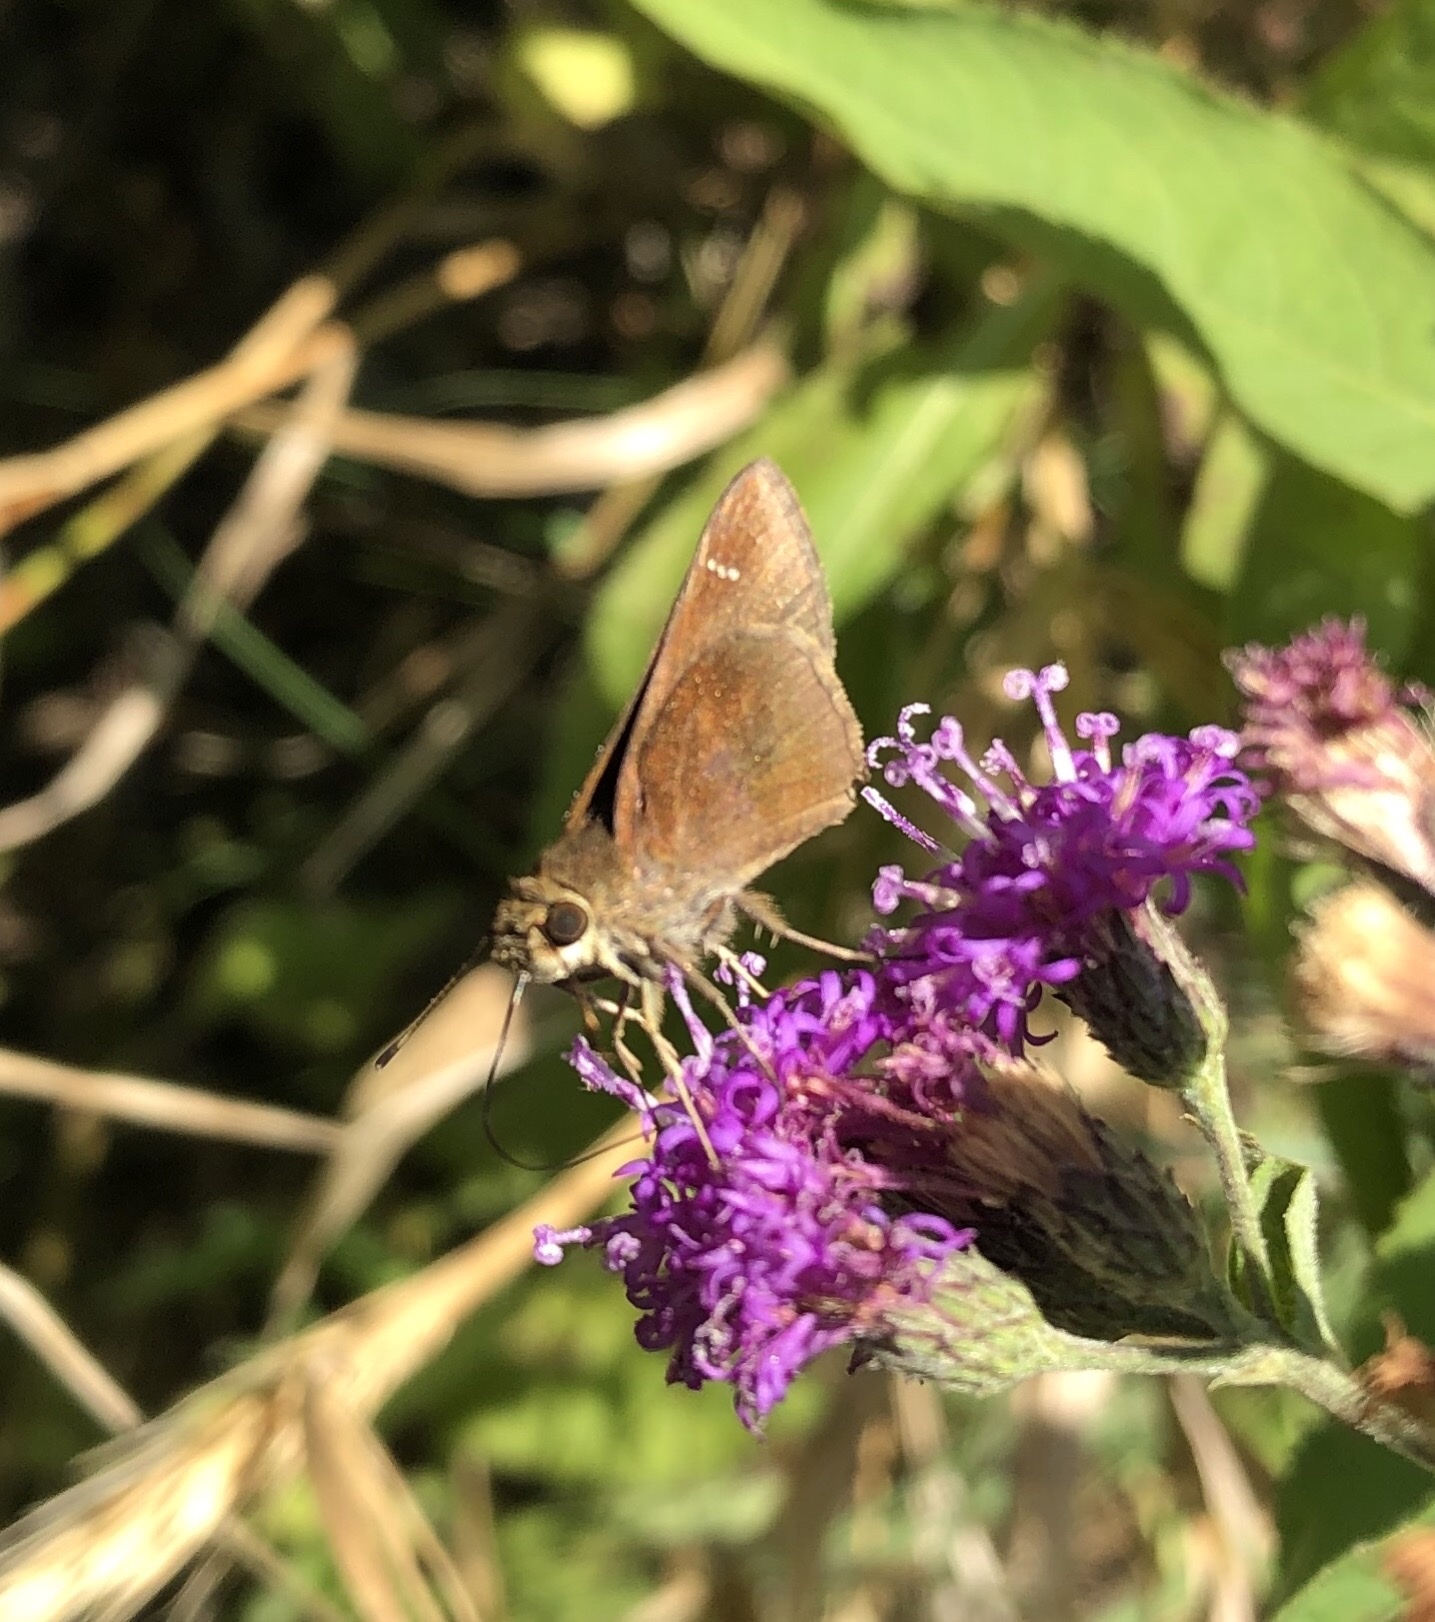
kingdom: Animalia
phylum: Arthropoda
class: Insecta
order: Lepidoptera
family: Hesperiidae
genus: Lerema
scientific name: Lerema accius
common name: Clouded skipper
